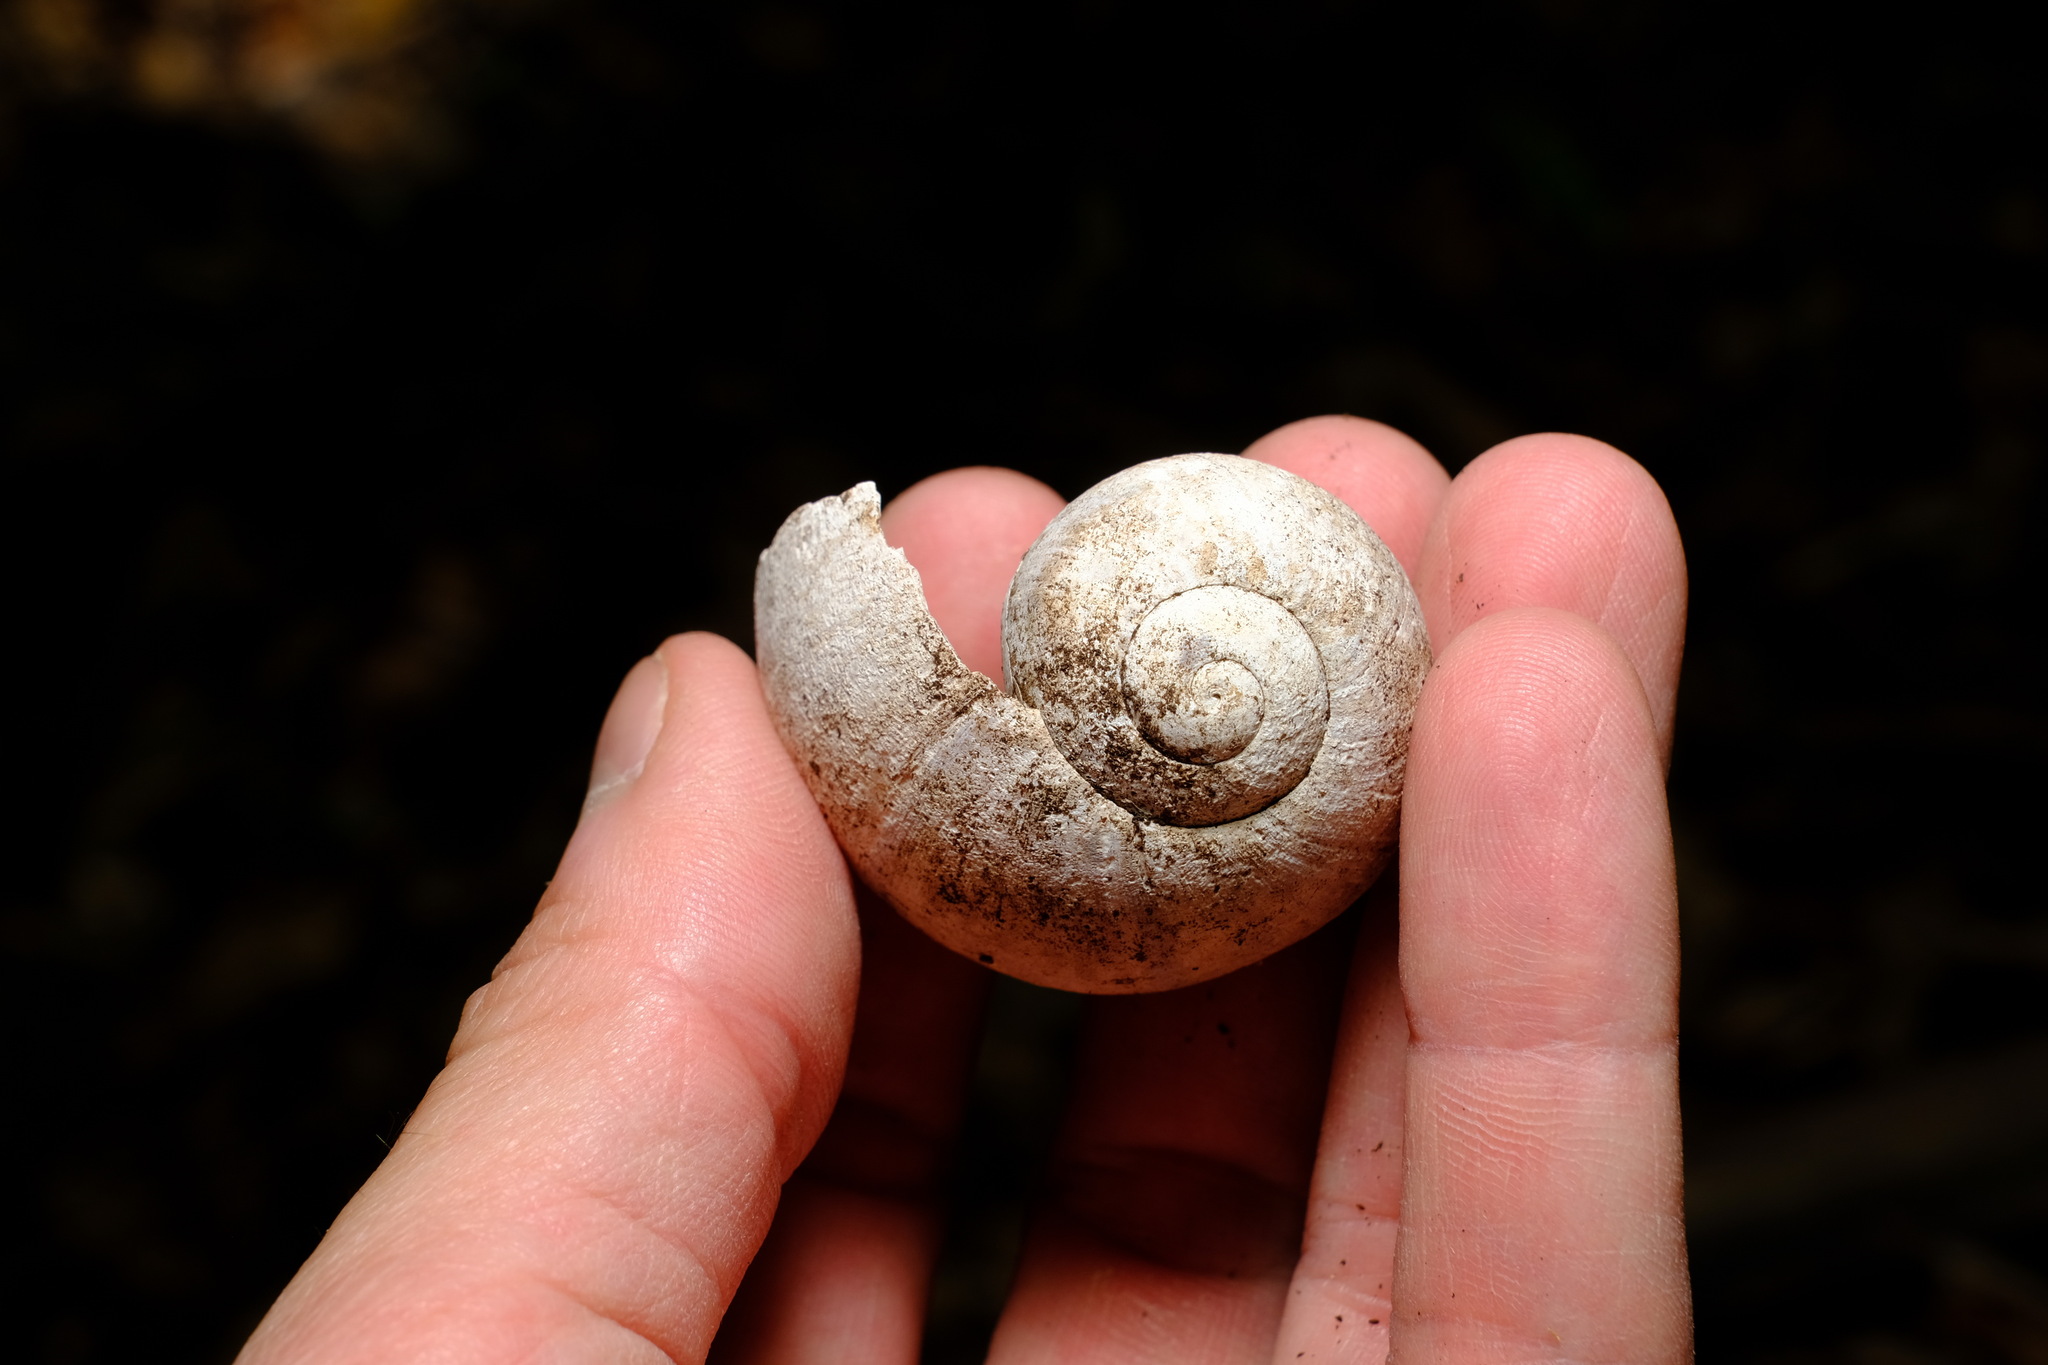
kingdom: Animalia
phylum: Mollusca
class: Gastropoda
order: Stylommatophora
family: Caryodidae
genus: Hedleyella
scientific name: Hedleyella falconeri
